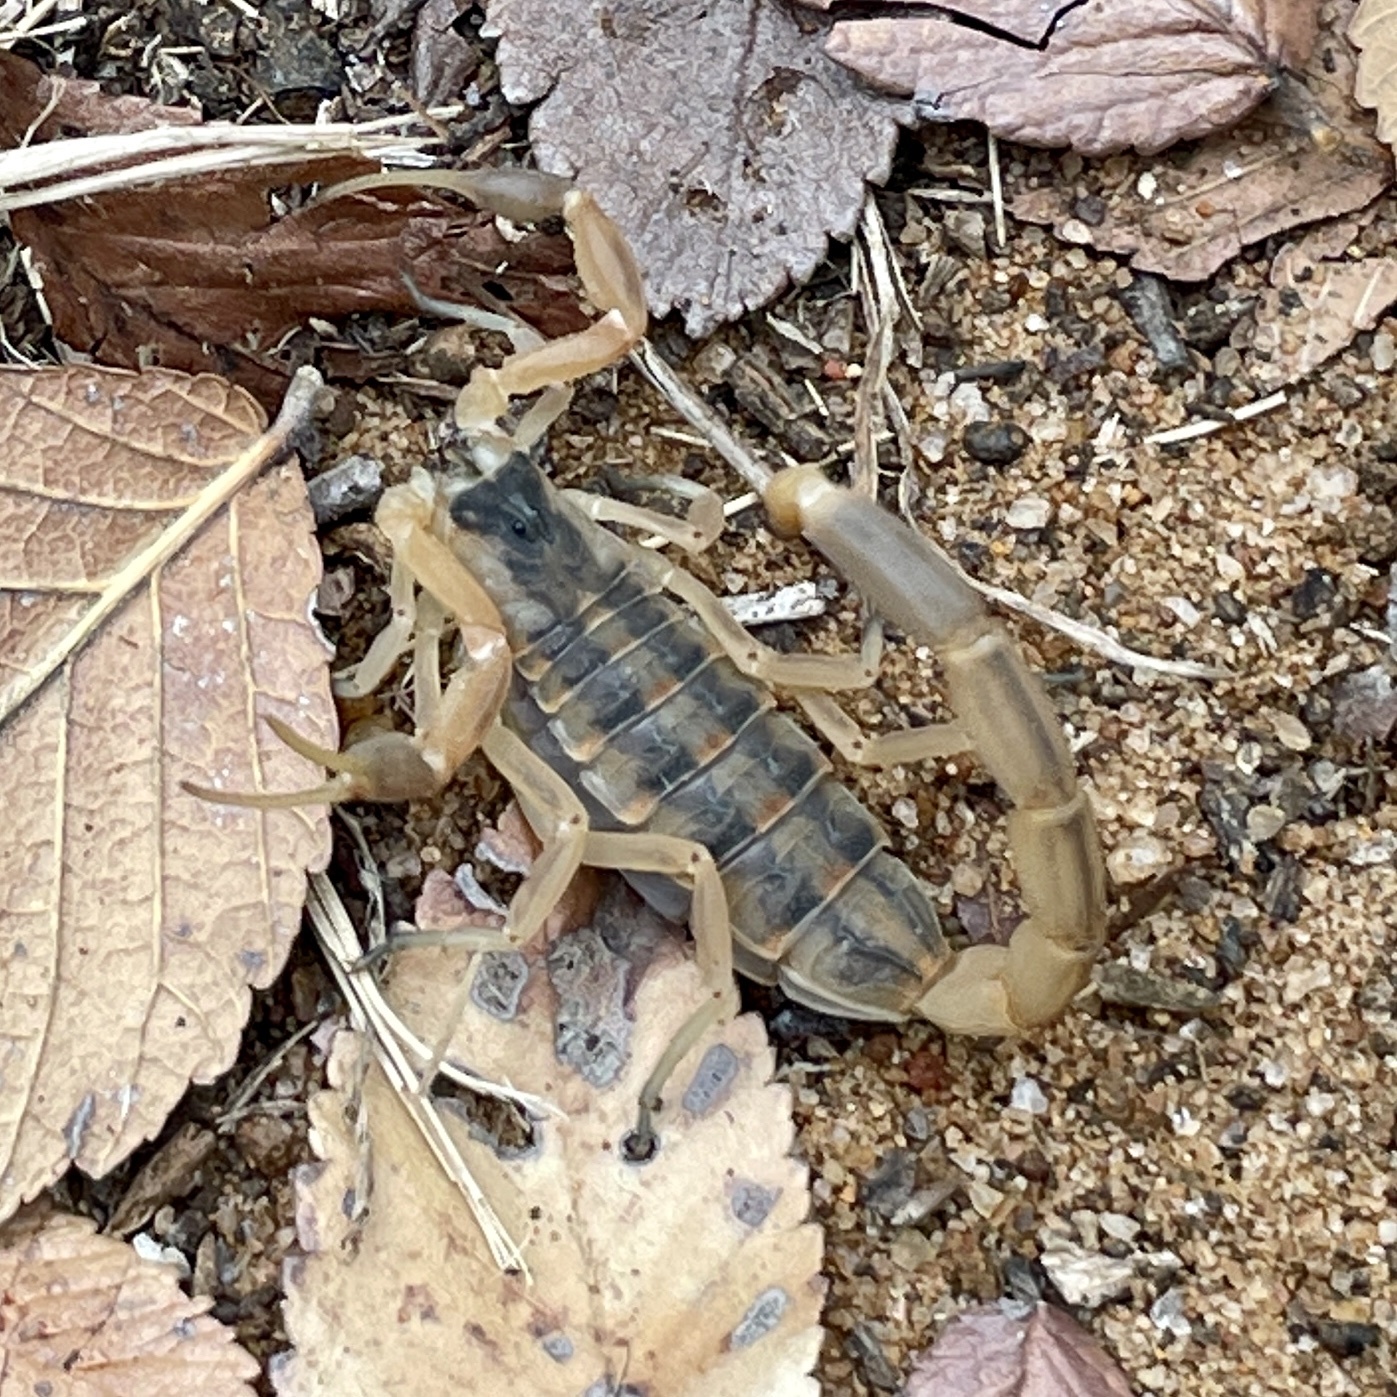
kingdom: Animalia
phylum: Arthropoda
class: Arachnida
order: Scorpiones
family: Buthidae
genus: Centruroides
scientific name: Centruroides vittatus
